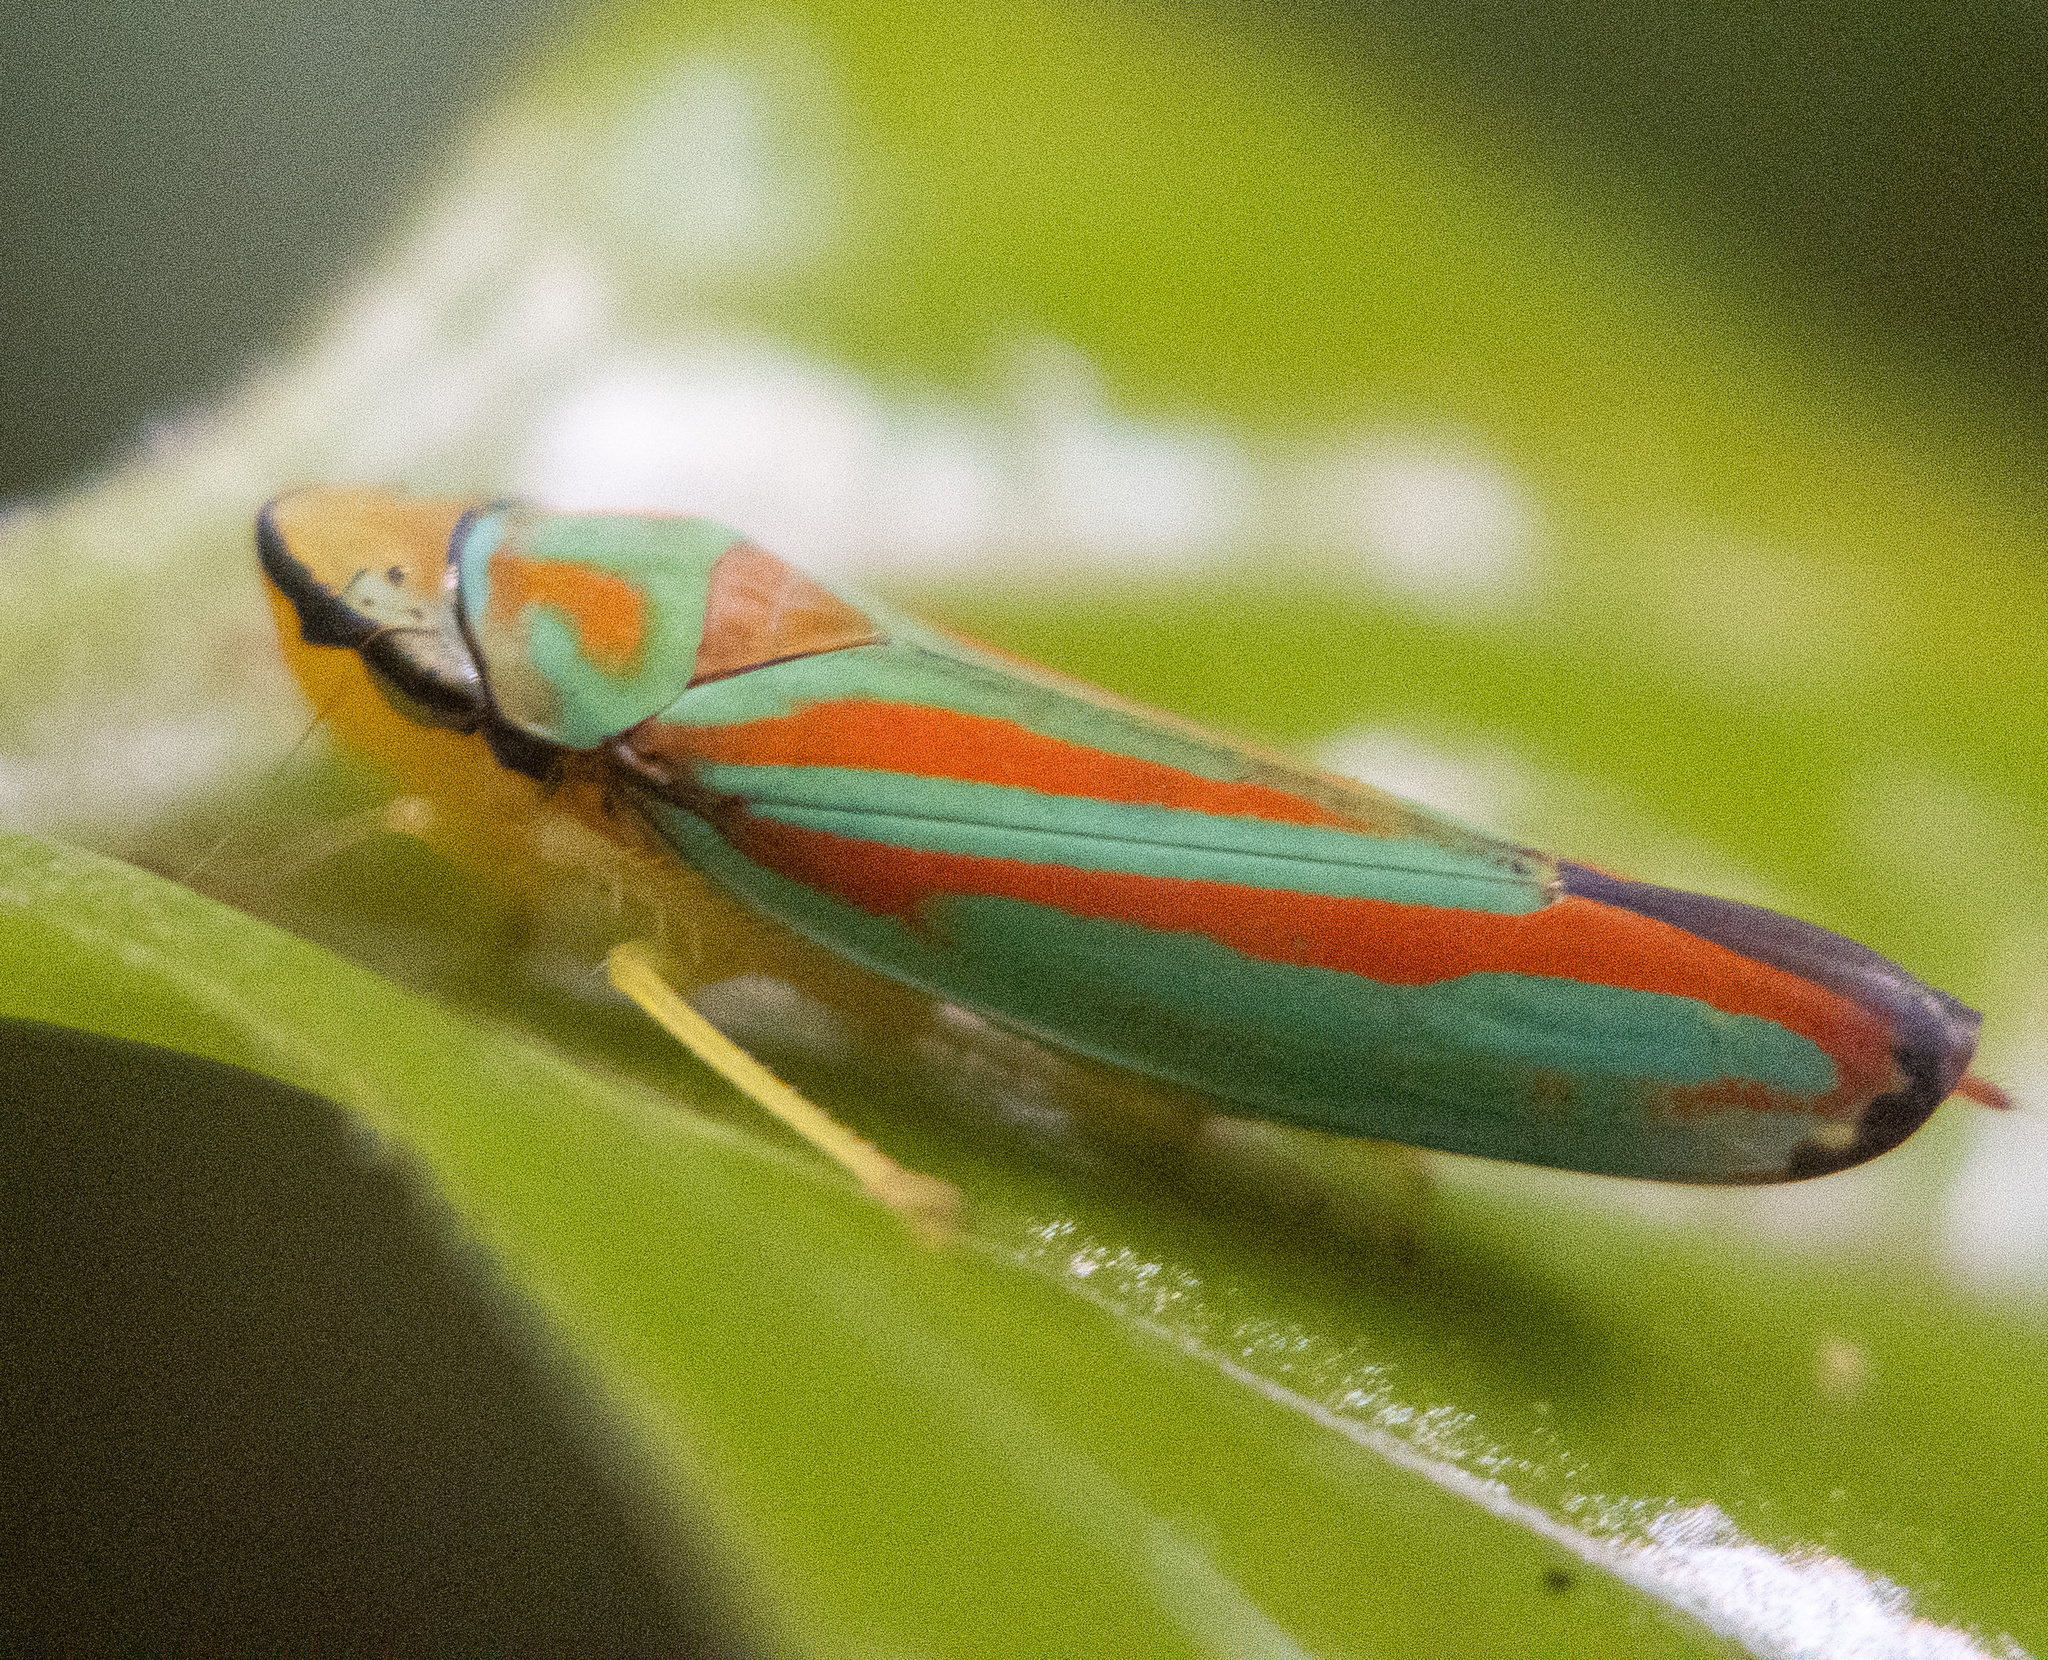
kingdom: Animalia
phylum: Arthropoda
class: Insecta
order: Hemiptera
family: Cicadellidae
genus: Graphocephala
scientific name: Graphocephala coccinea
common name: Candy-striped leafhopper
